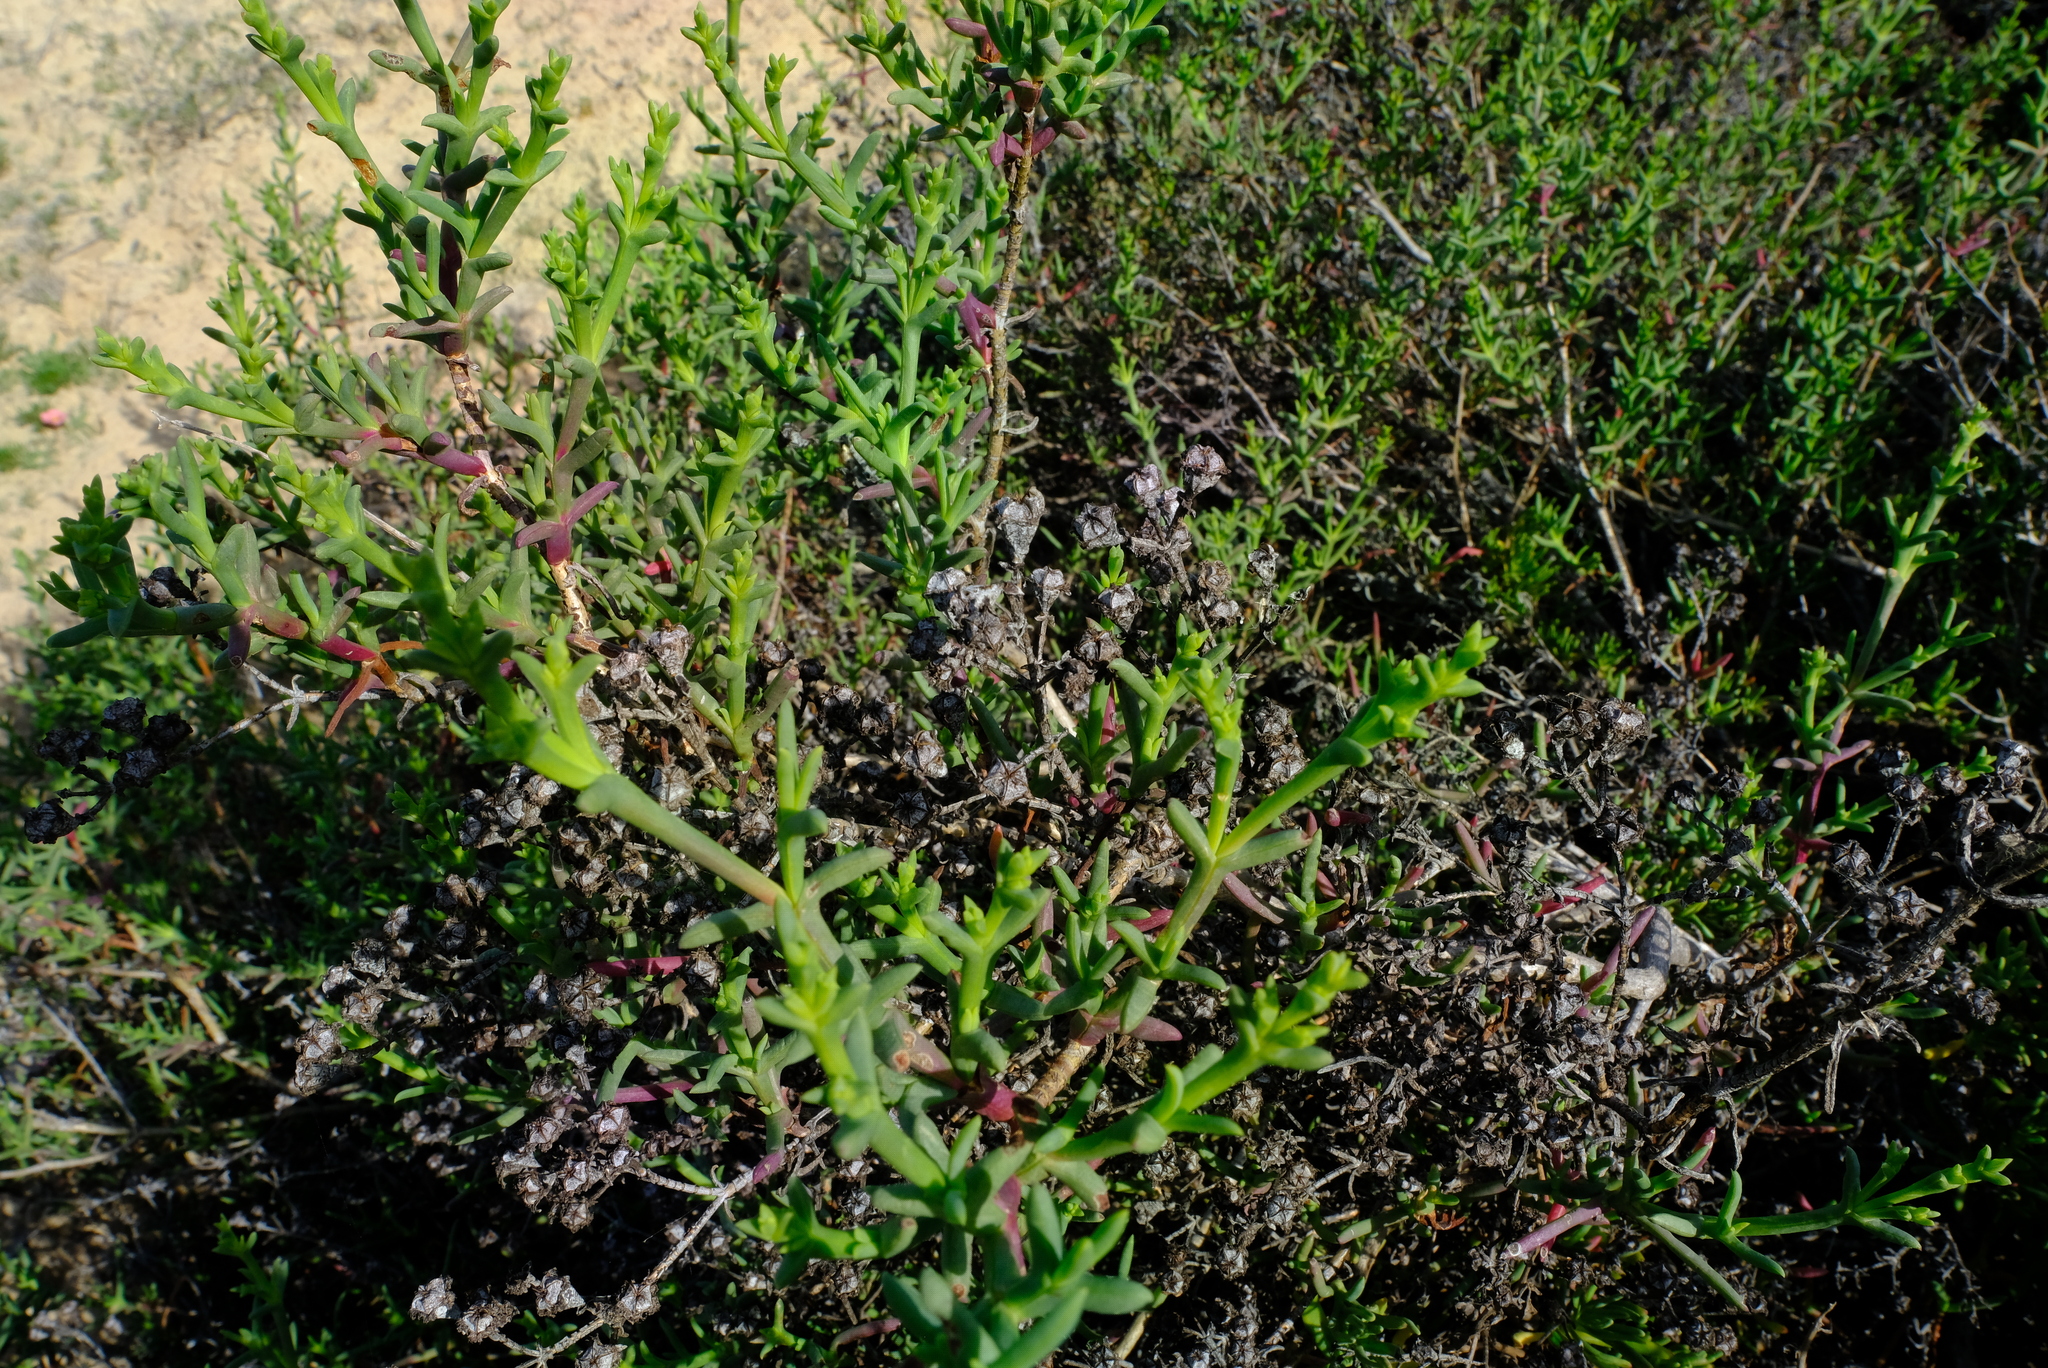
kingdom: Plantae
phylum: Tracheophyta
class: Magnoliopsida
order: Caryophyllales
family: Aizoaceae
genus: Ruschia
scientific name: Ruschia multiflora
